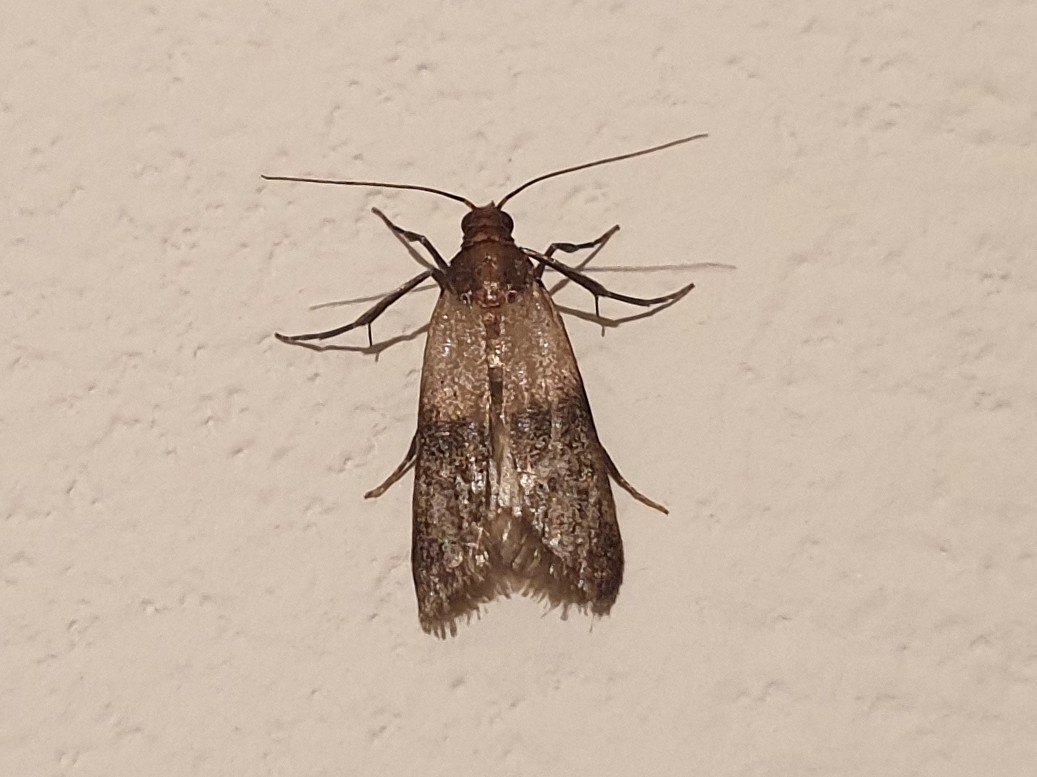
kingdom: Animalia
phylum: Arthropoda
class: Insecta
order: Lepidoptera
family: Pyralidae
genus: Plodia
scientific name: Plodia interpunctella
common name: Indian meal moth
